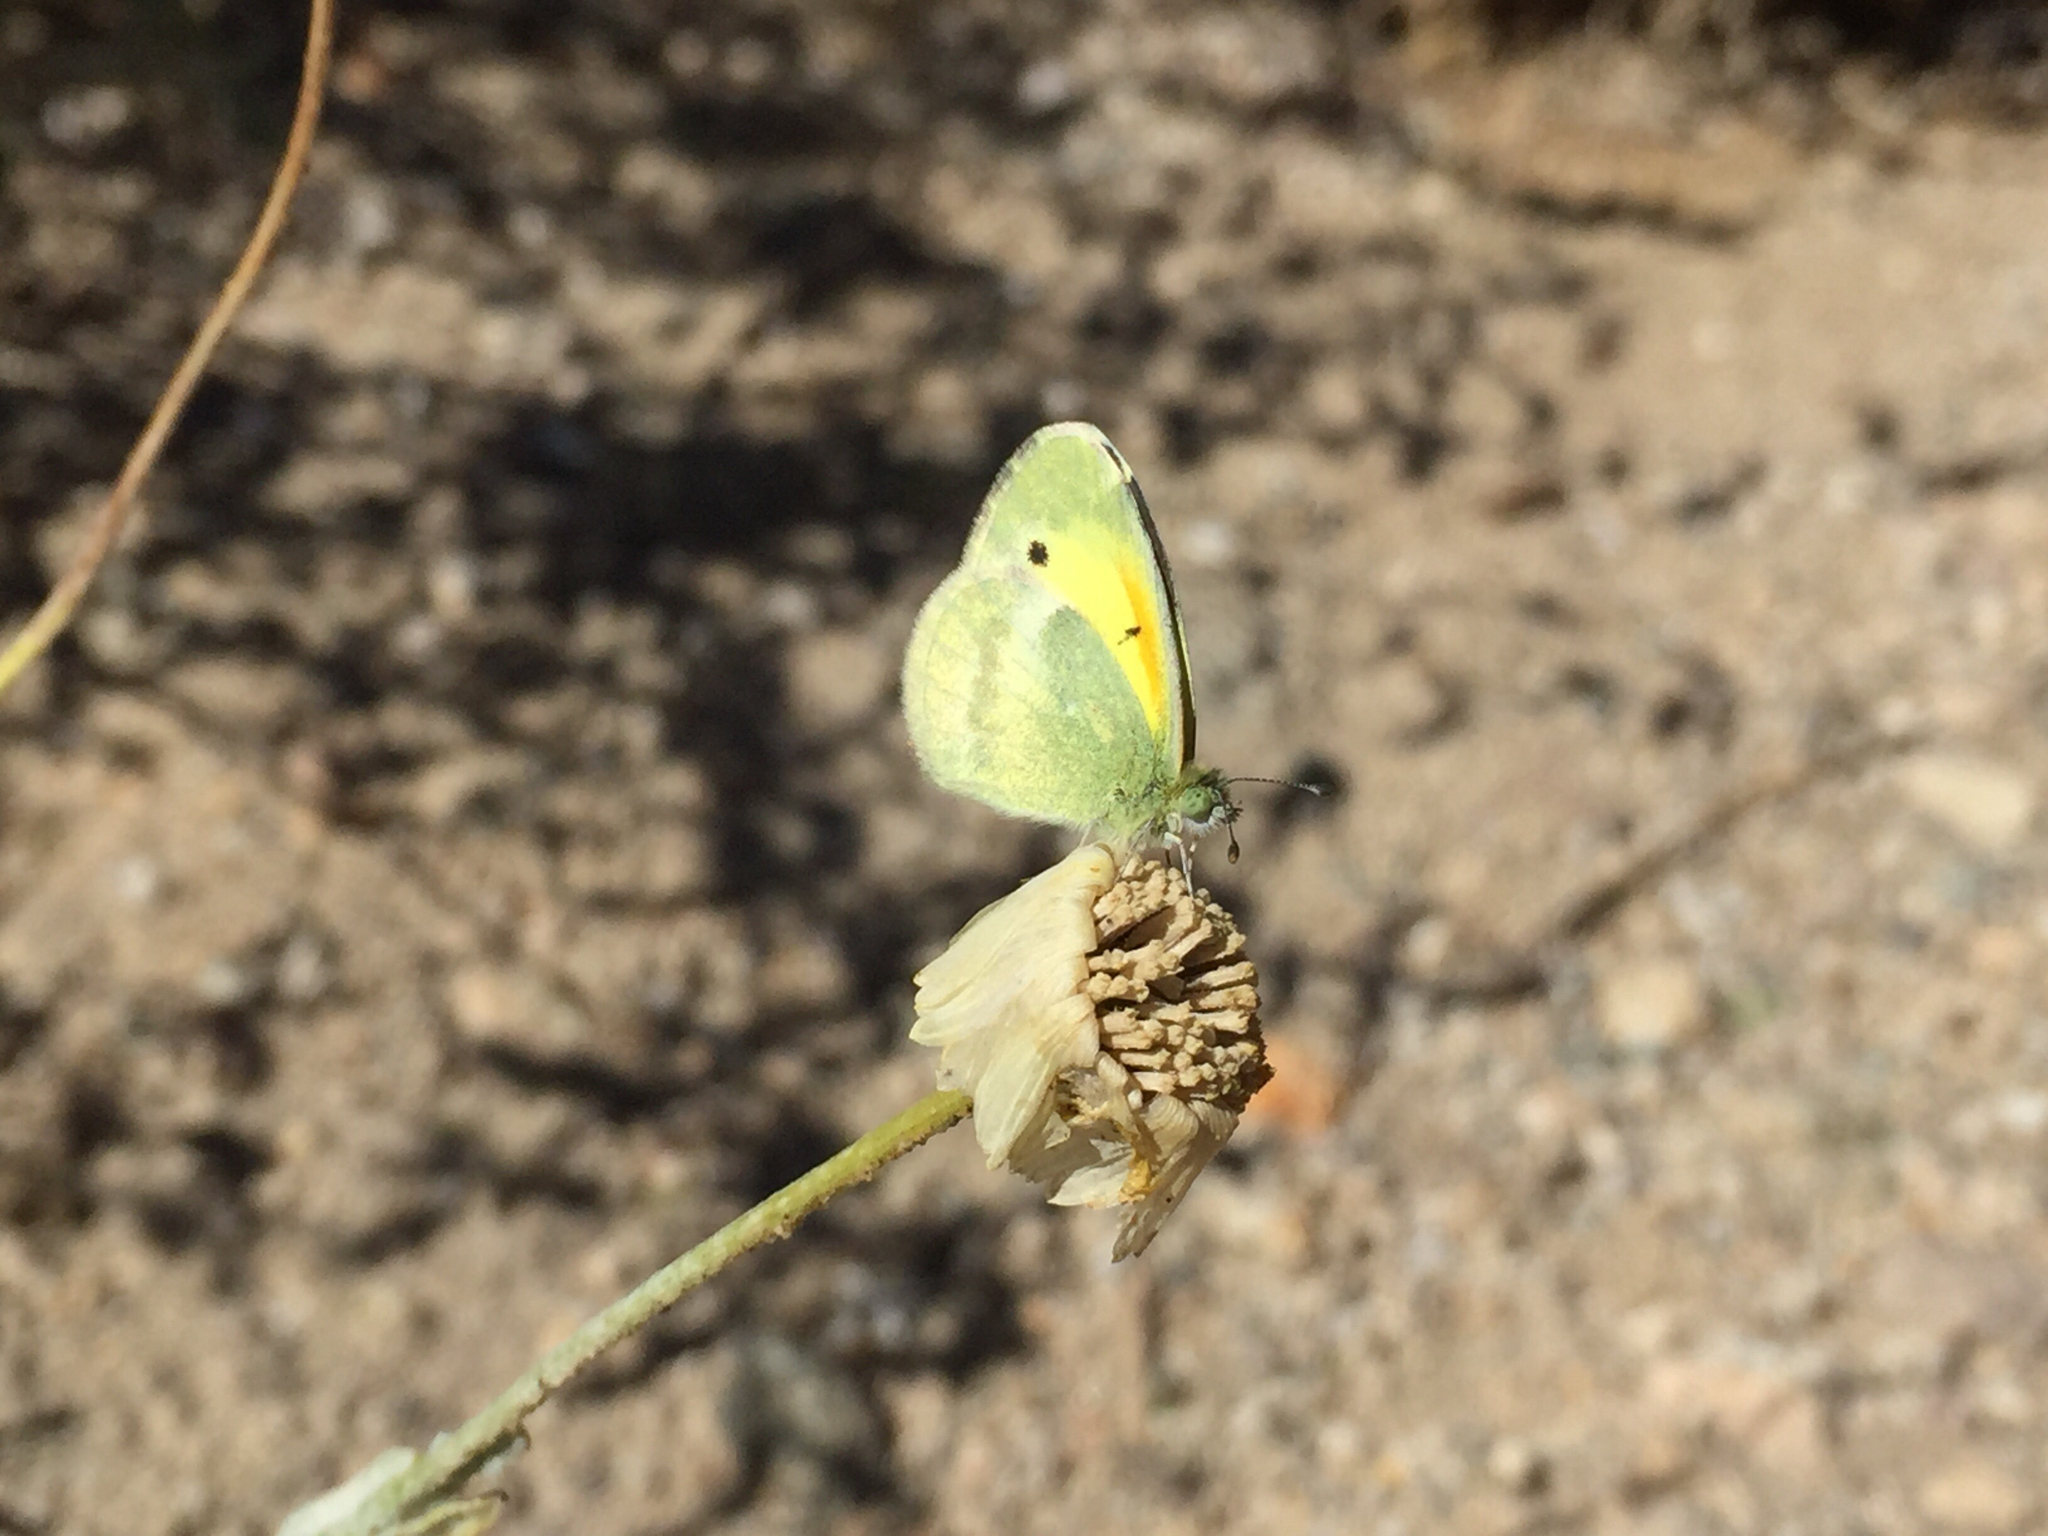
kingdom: Animalia
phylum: Arthropoda
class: Insecta
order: Lepidoptera
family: Pieridae
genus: Nathalis
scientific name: Nathalis iole
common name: Dainty sulphur
